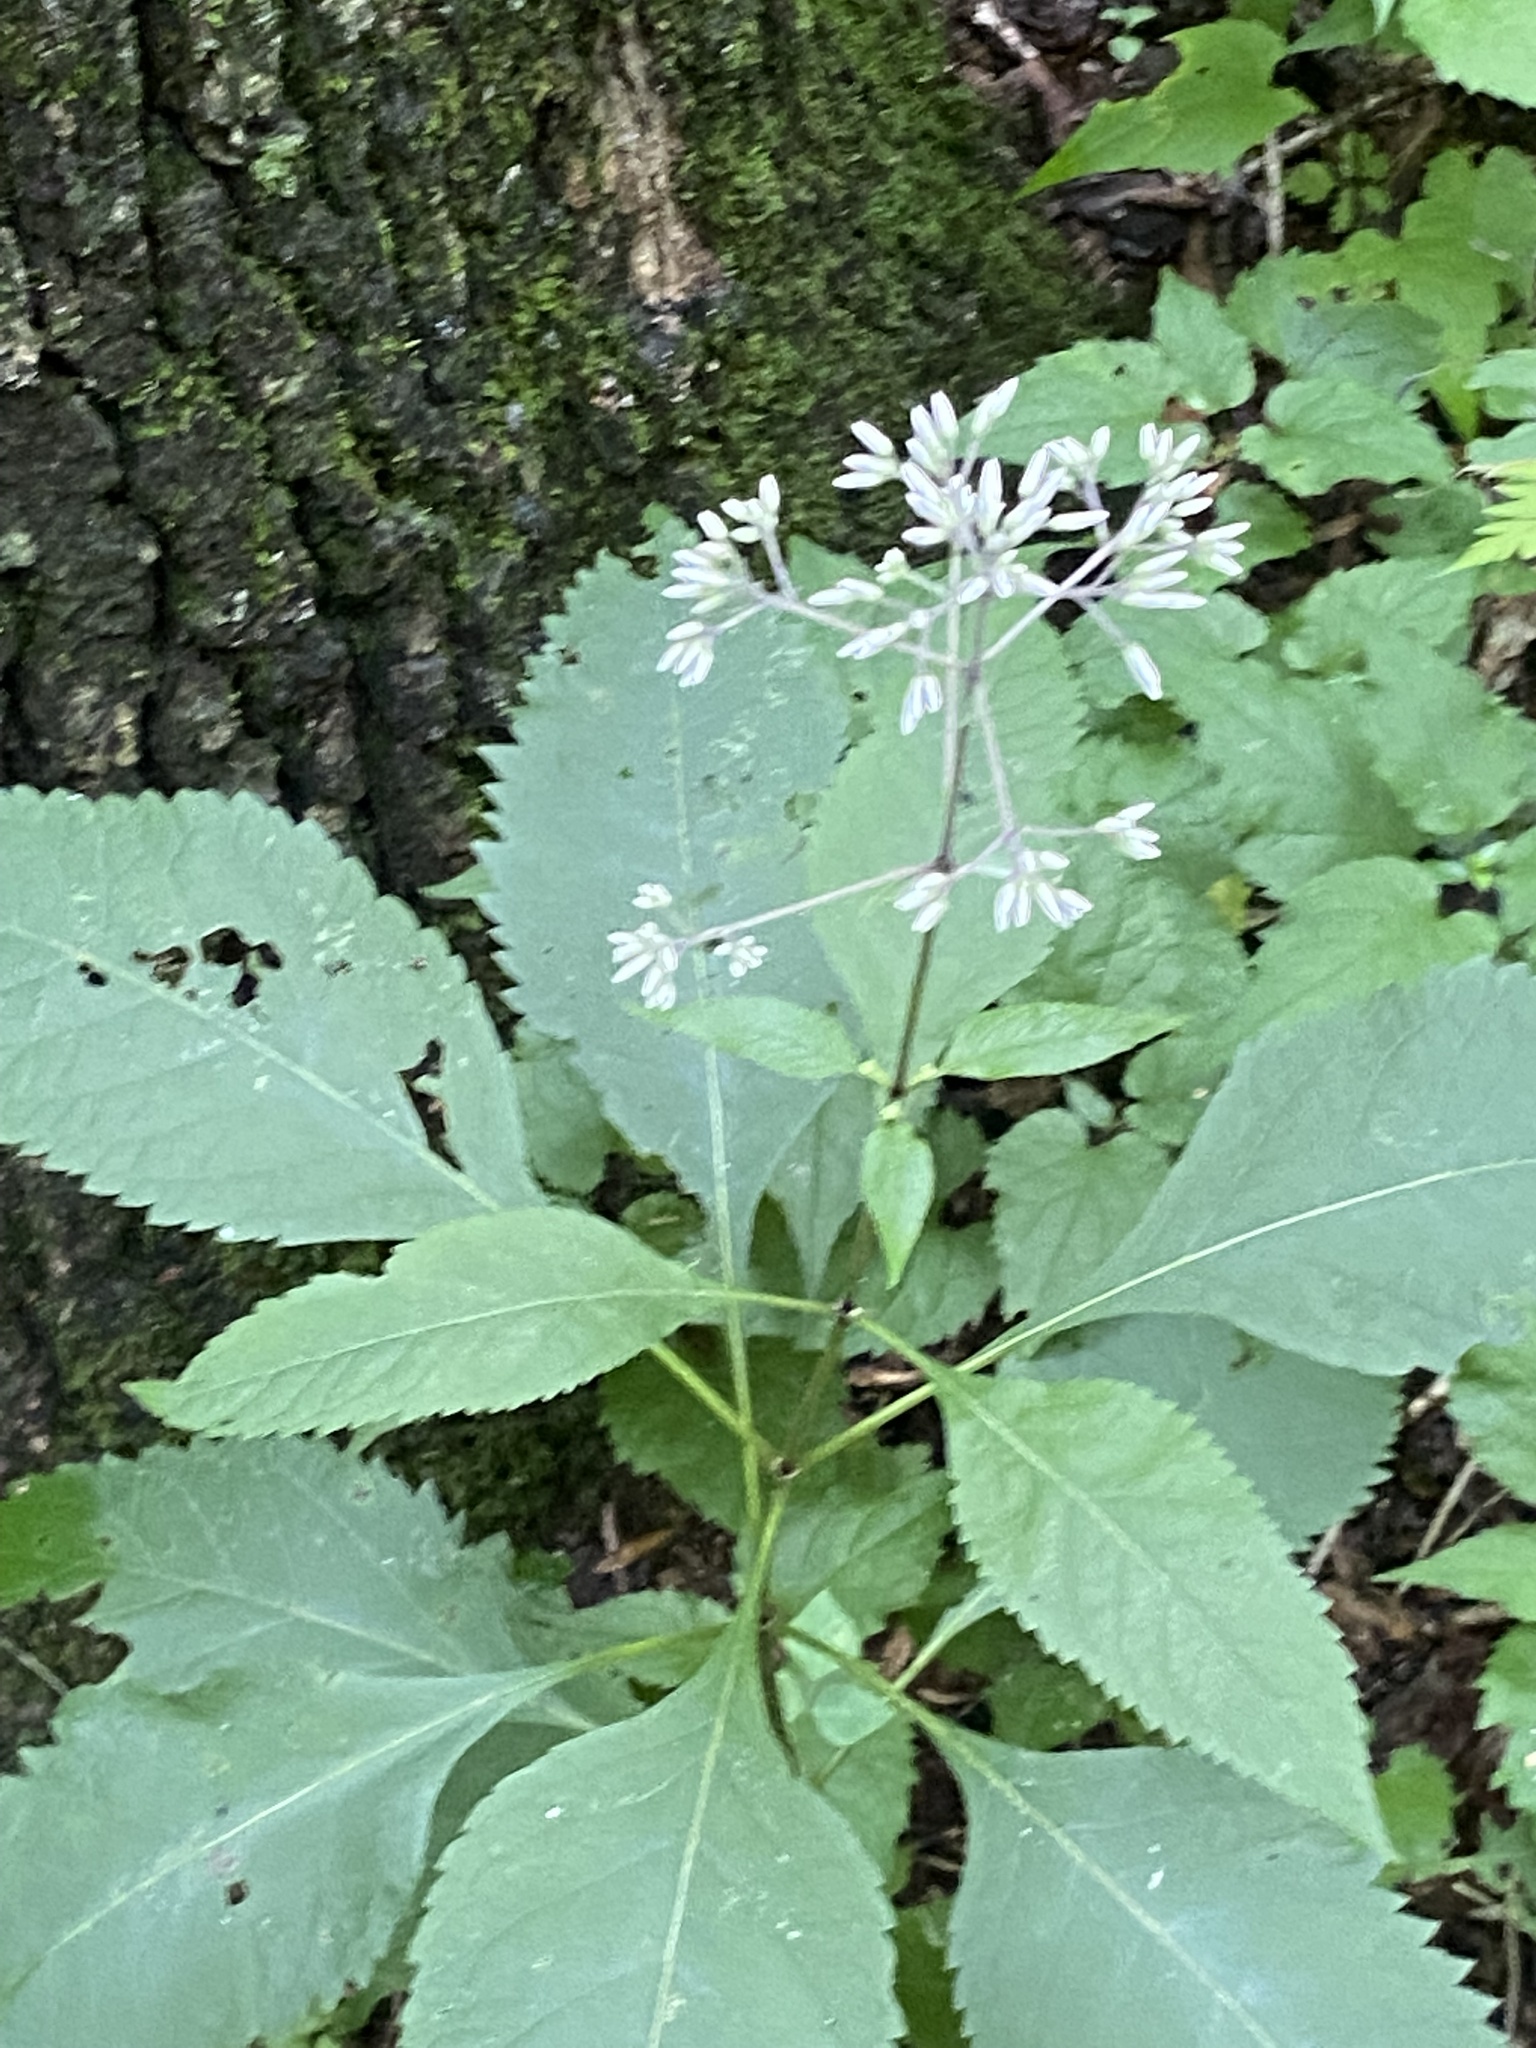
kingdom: Plantae
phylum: Tracheophyta
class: Magnoliopsida
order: Asterales
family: Asteraceae
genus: Eutrochium
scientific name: Eutrochium purpureum
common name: Gravelroot
